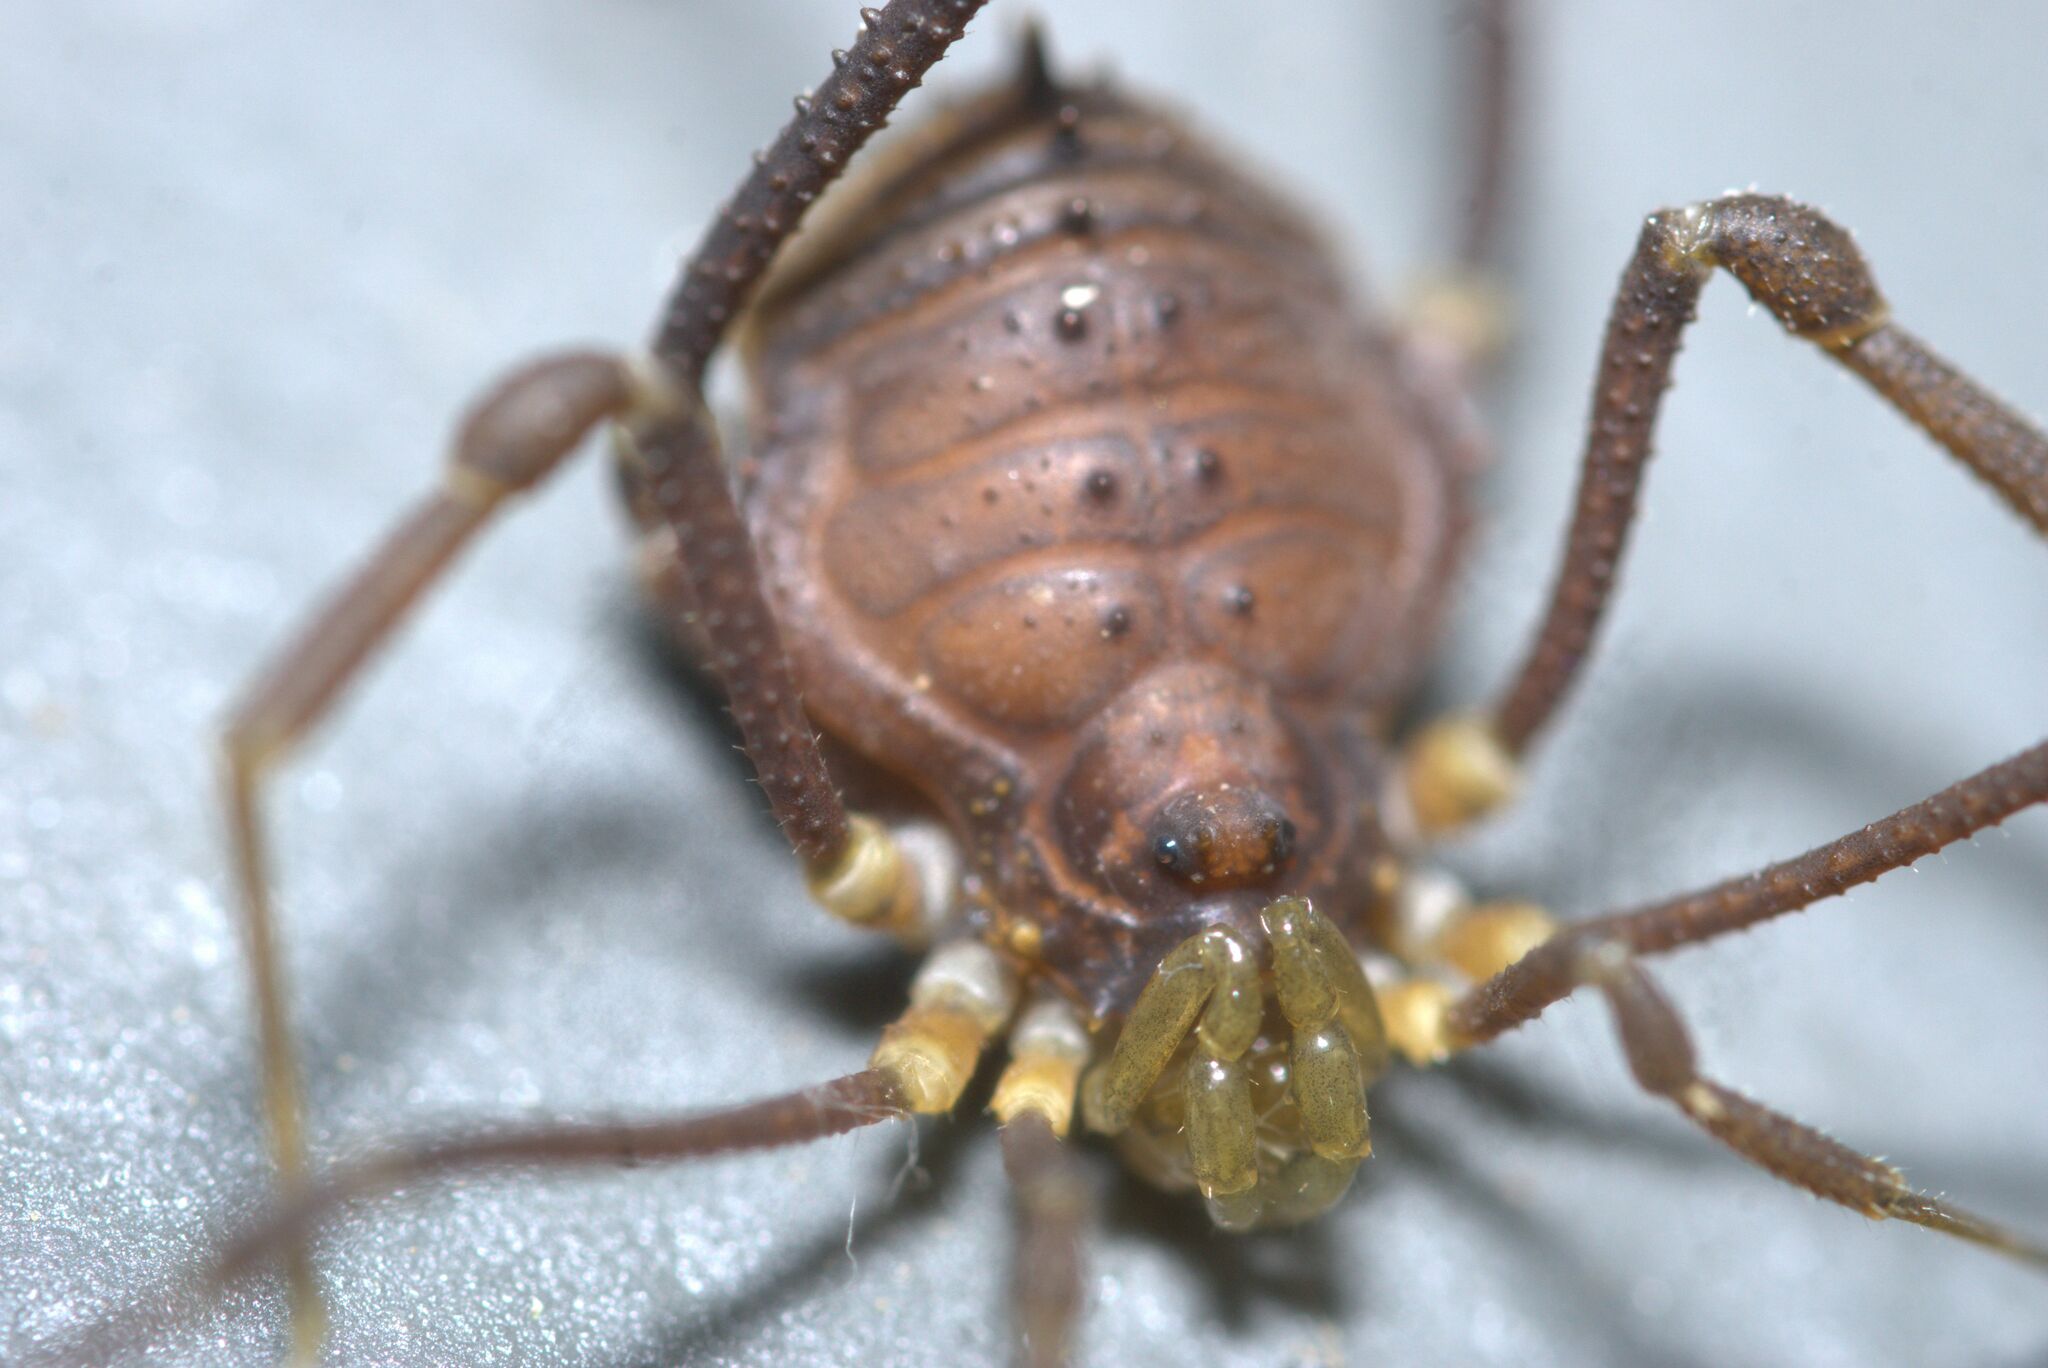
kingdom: Animalia
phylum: Arthropoda
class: Arachnida
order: Opiliones
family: Gonyleptidae
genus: Mischonyx
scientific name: Mischonyx squalidus
